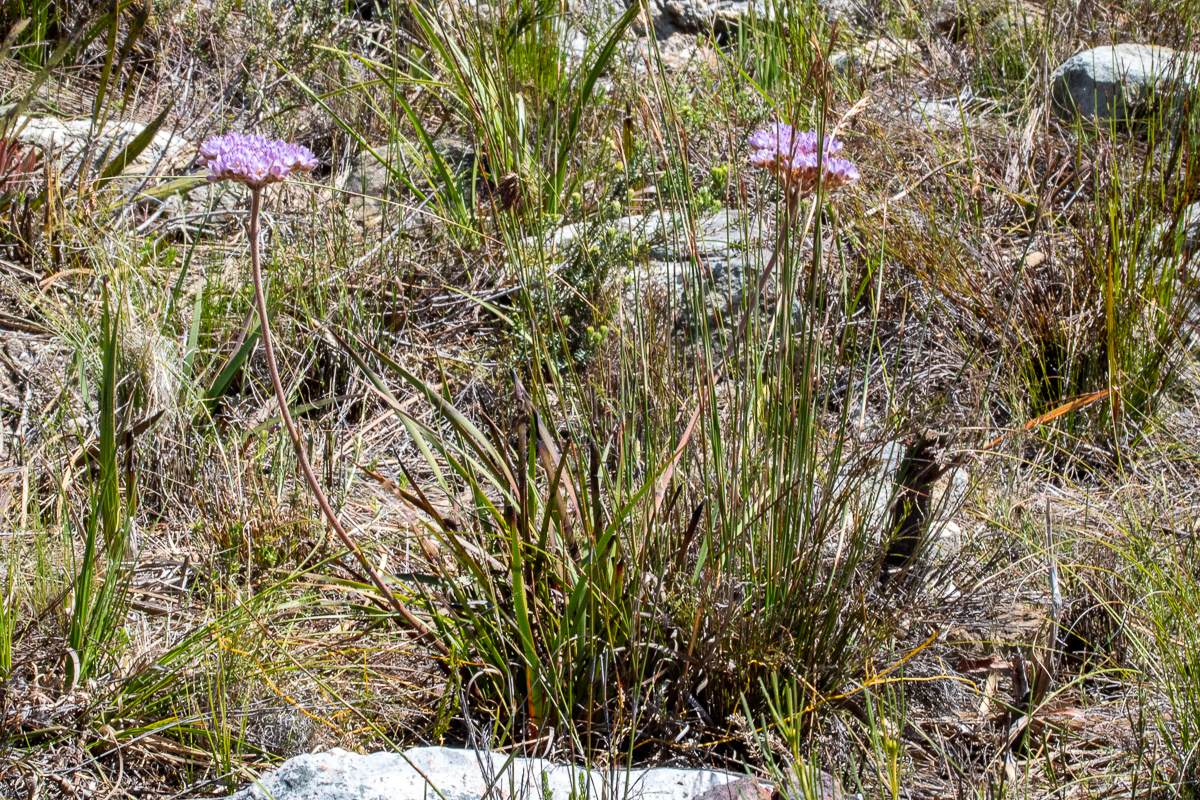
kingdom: Plantae
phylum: Tracheophyta
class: Liliopsida
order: Commelinales
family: Haemodoraceae
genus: Dilatris
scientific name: Dilatris pillansii
